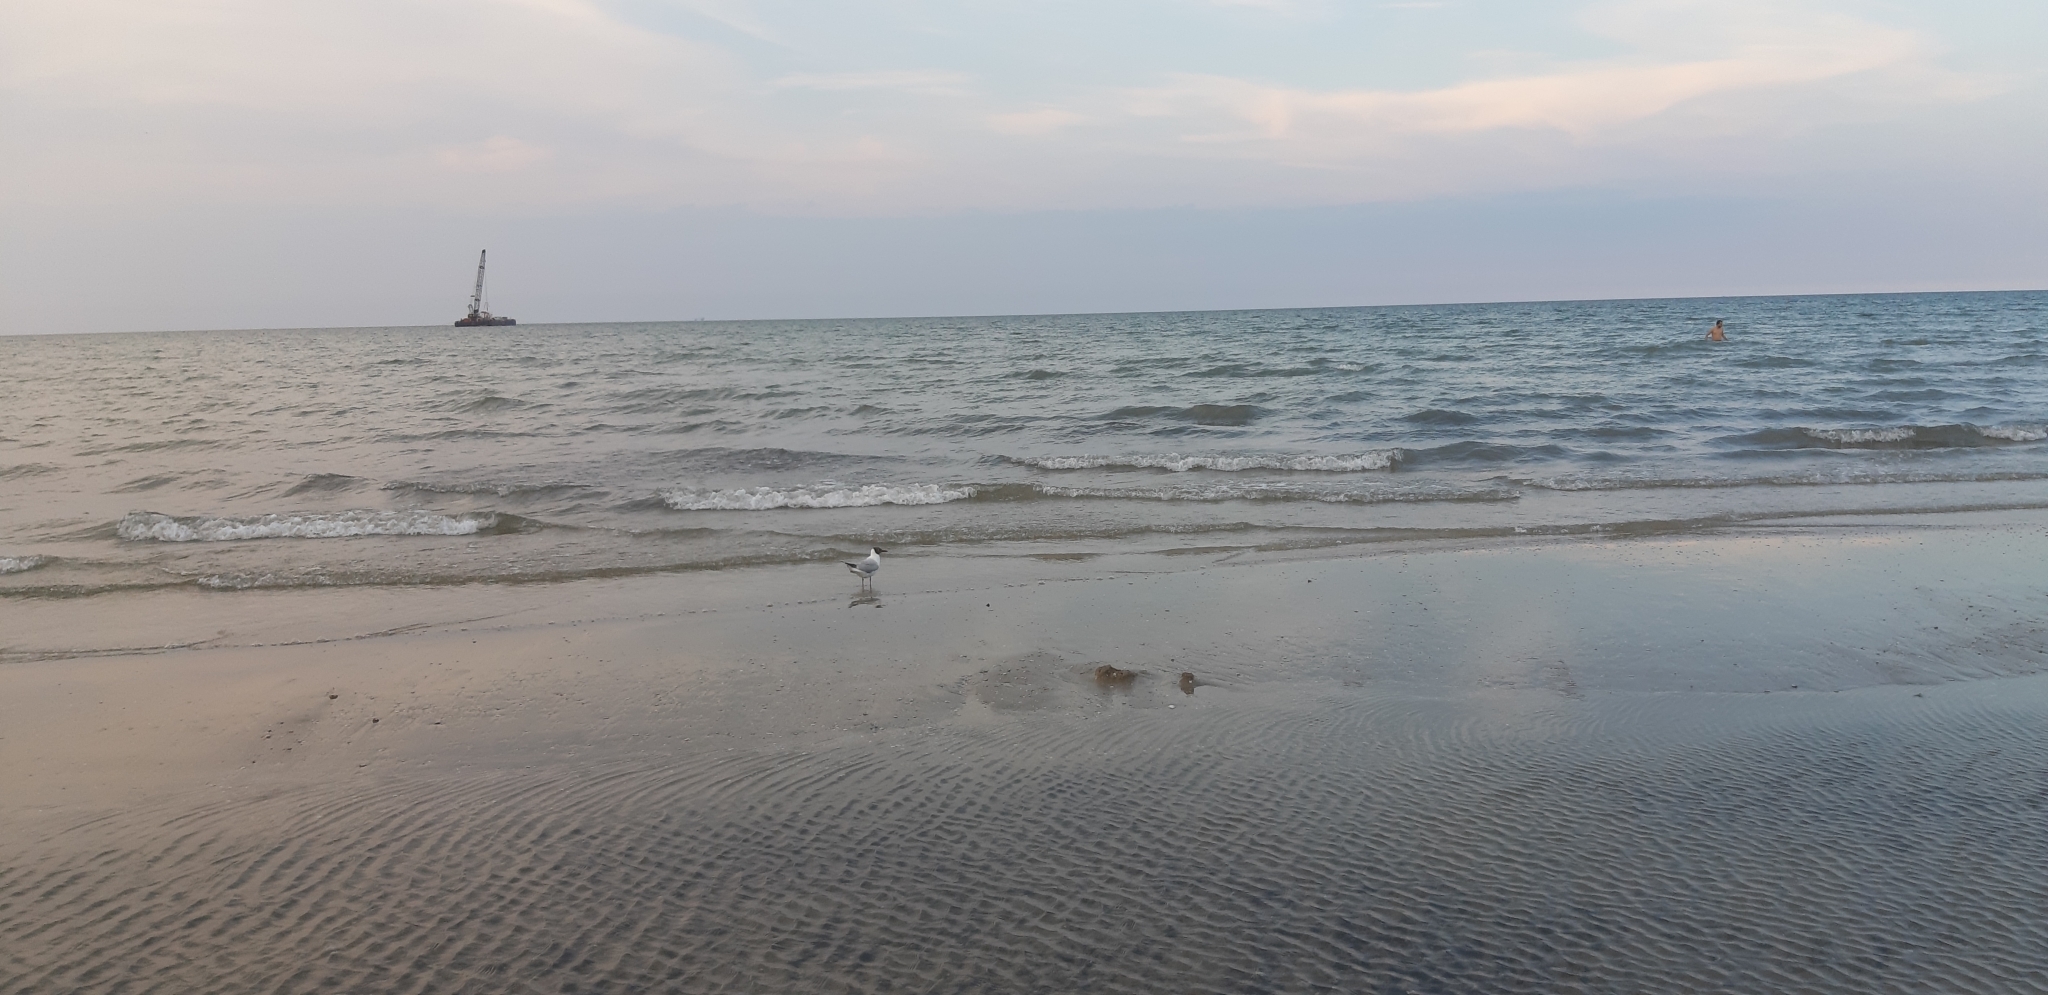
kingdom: Animalia
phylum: Chordata
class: Aves
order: Charadriiformes
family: Laridae
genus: Chroicocephalus
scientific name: Chroicocephalus ridibundus
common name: Black-headed gull
